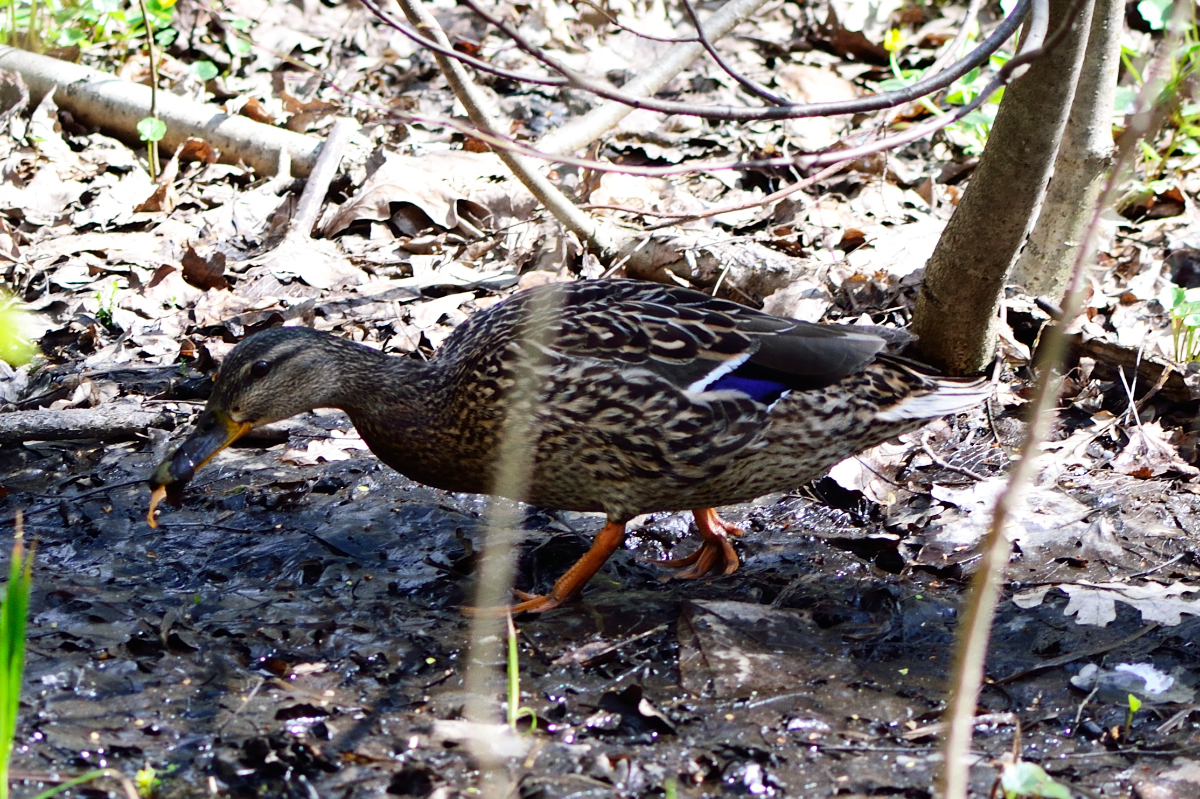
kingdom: Animalia
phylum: Chordata
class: Aves
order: Anseriformes
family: Anatidae
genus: Anas
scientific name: Anas platyrhynchos
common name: Mallard
